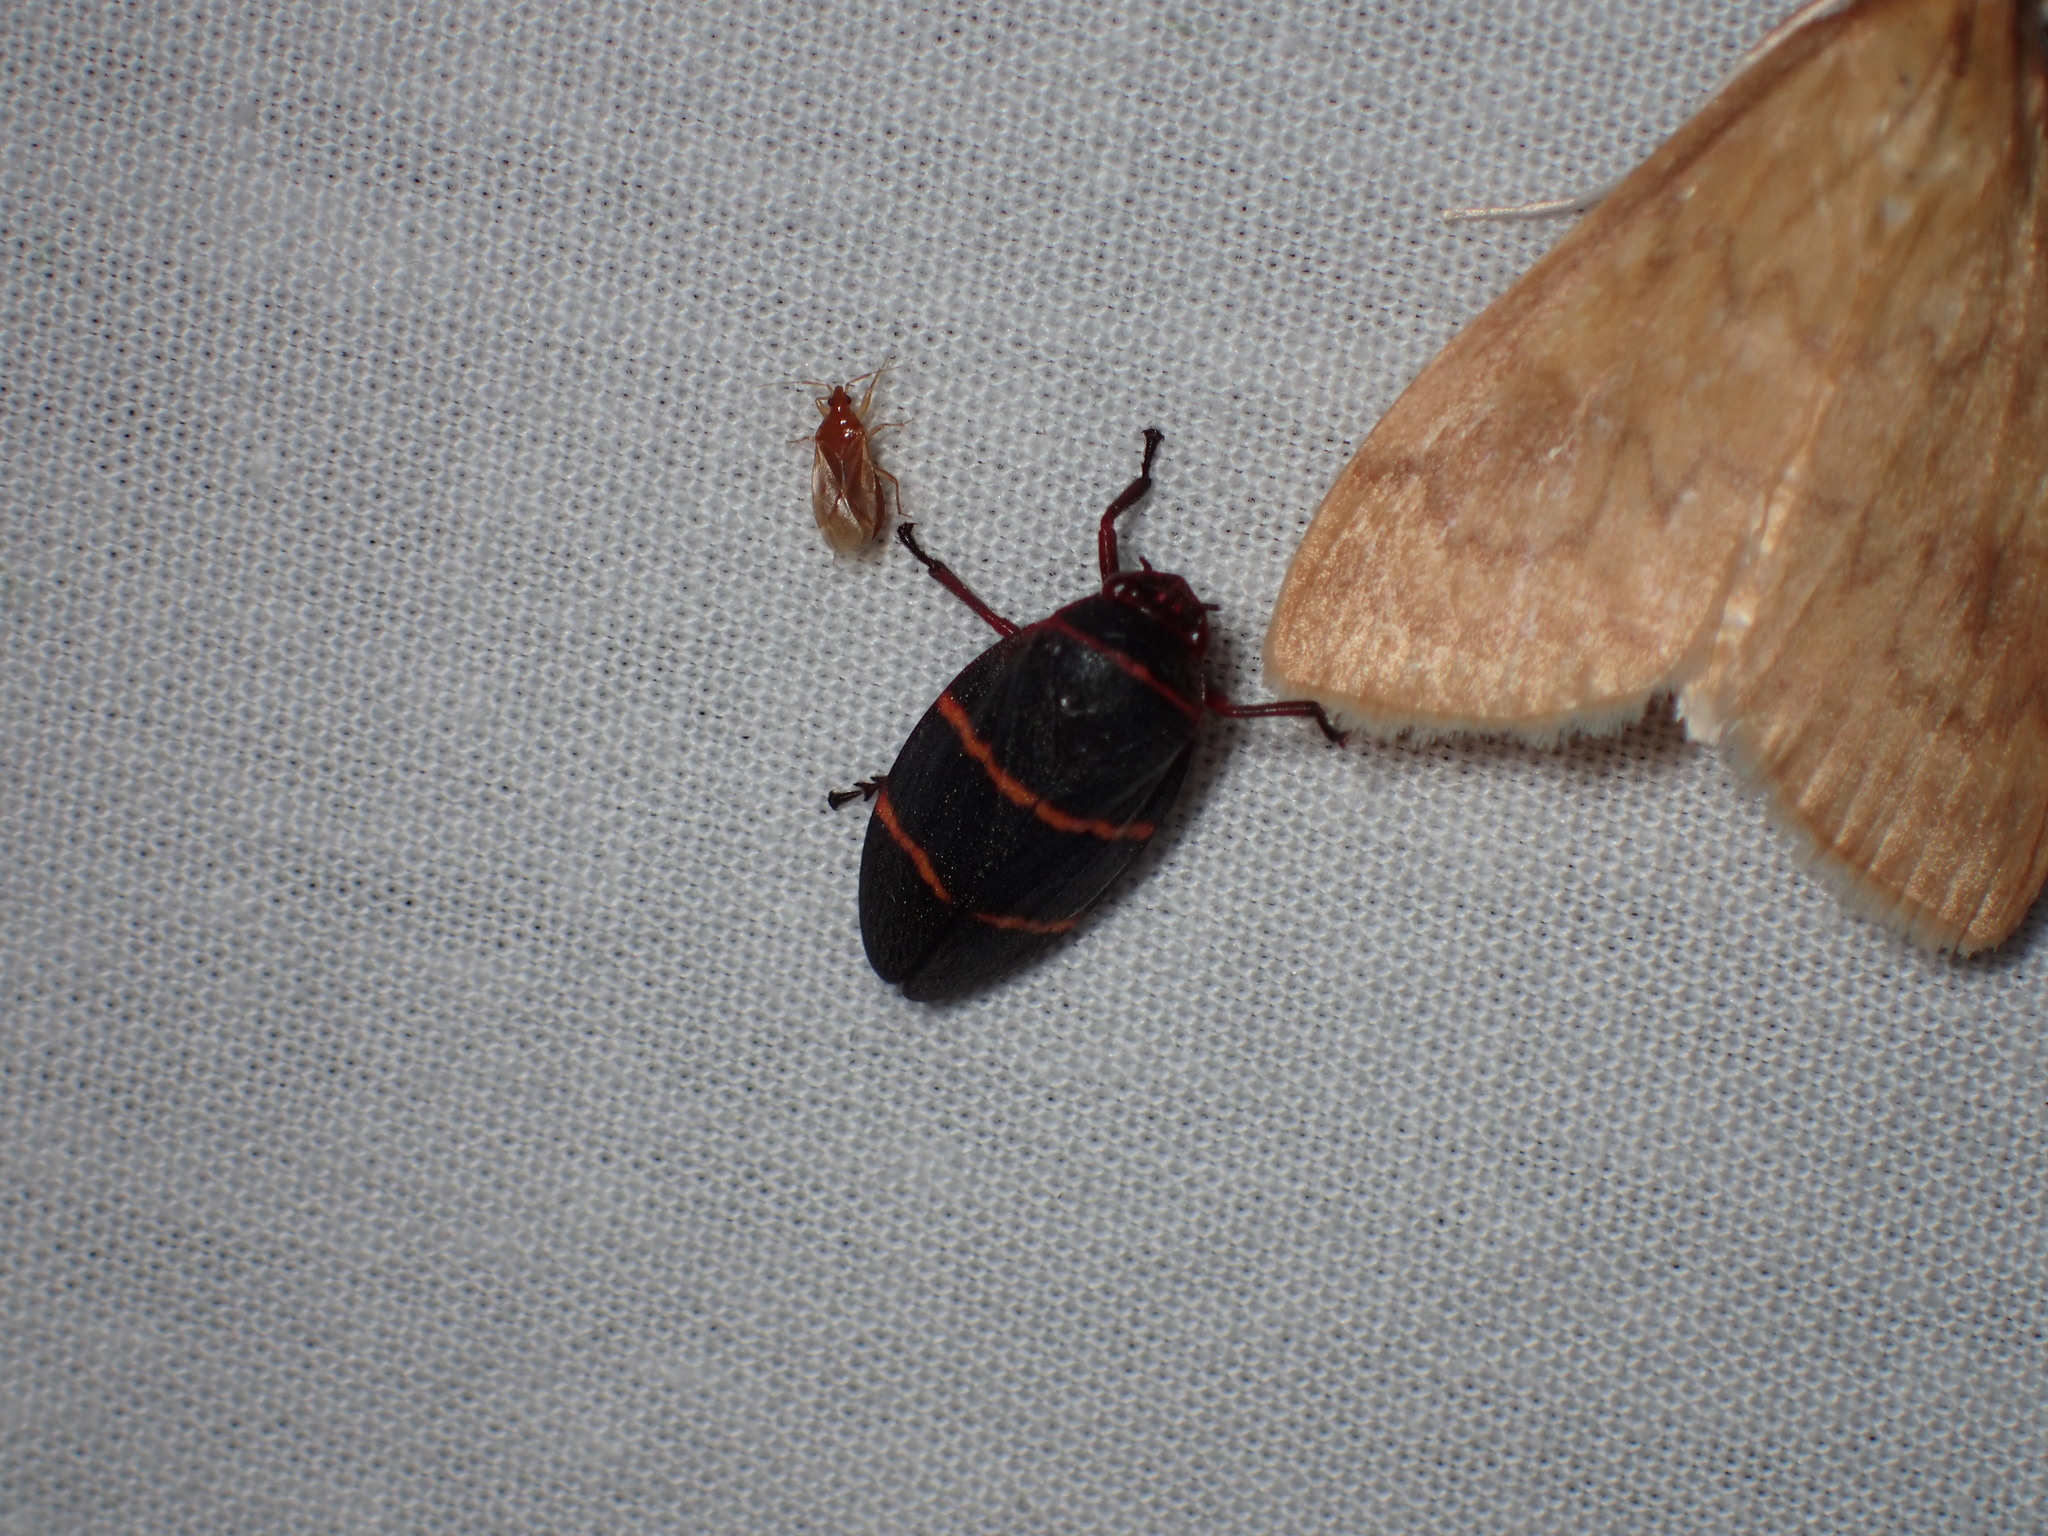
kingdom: Animalia
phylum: Arthropoda
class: Insecta
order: Hemiptera
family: Cercopidae
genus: Prosapia
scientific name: Prosapia bicincta
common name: Twolined spittlebug
